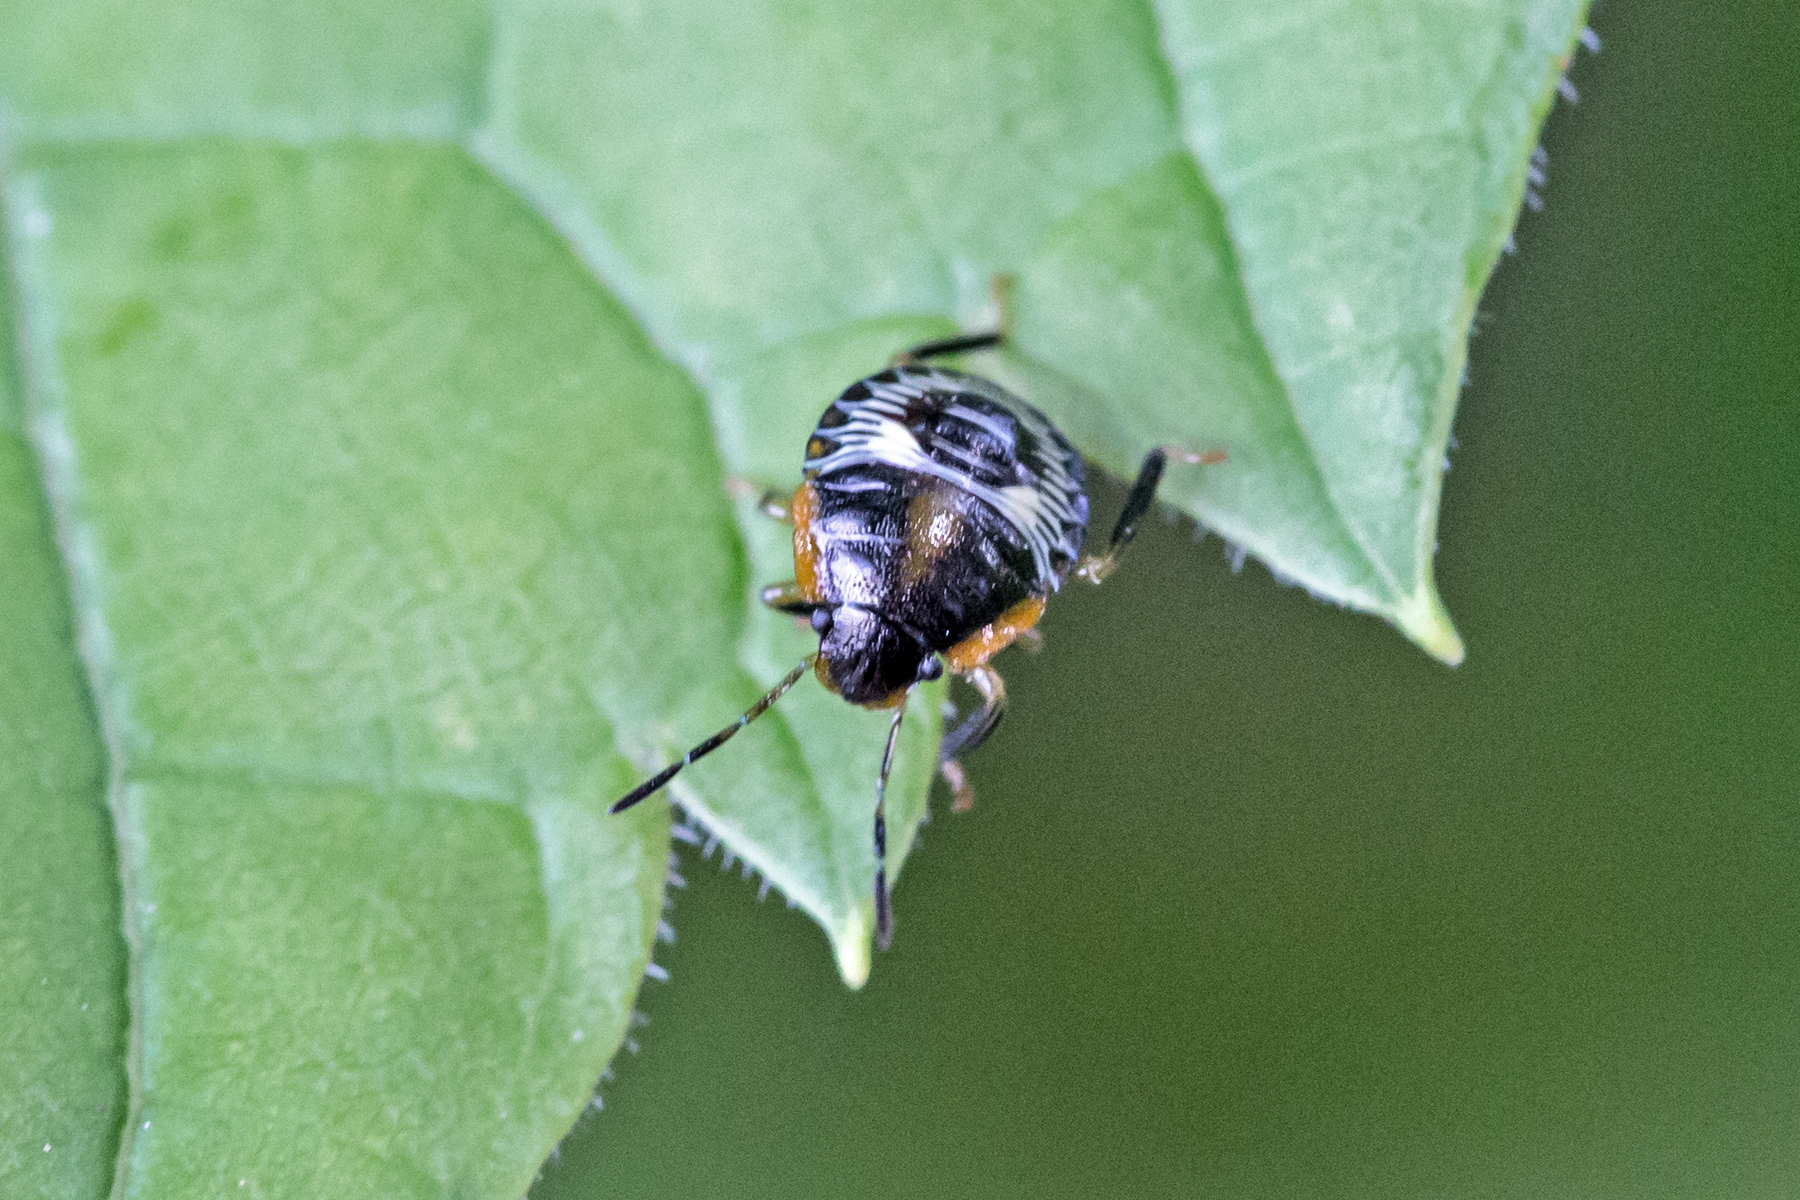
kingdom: Animalia
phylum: Arthropoda
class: Insecta
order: Hemiptera
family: Pentatomidae
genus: Chinavia
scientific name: Chinavia hilaris
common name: Green stink bug
